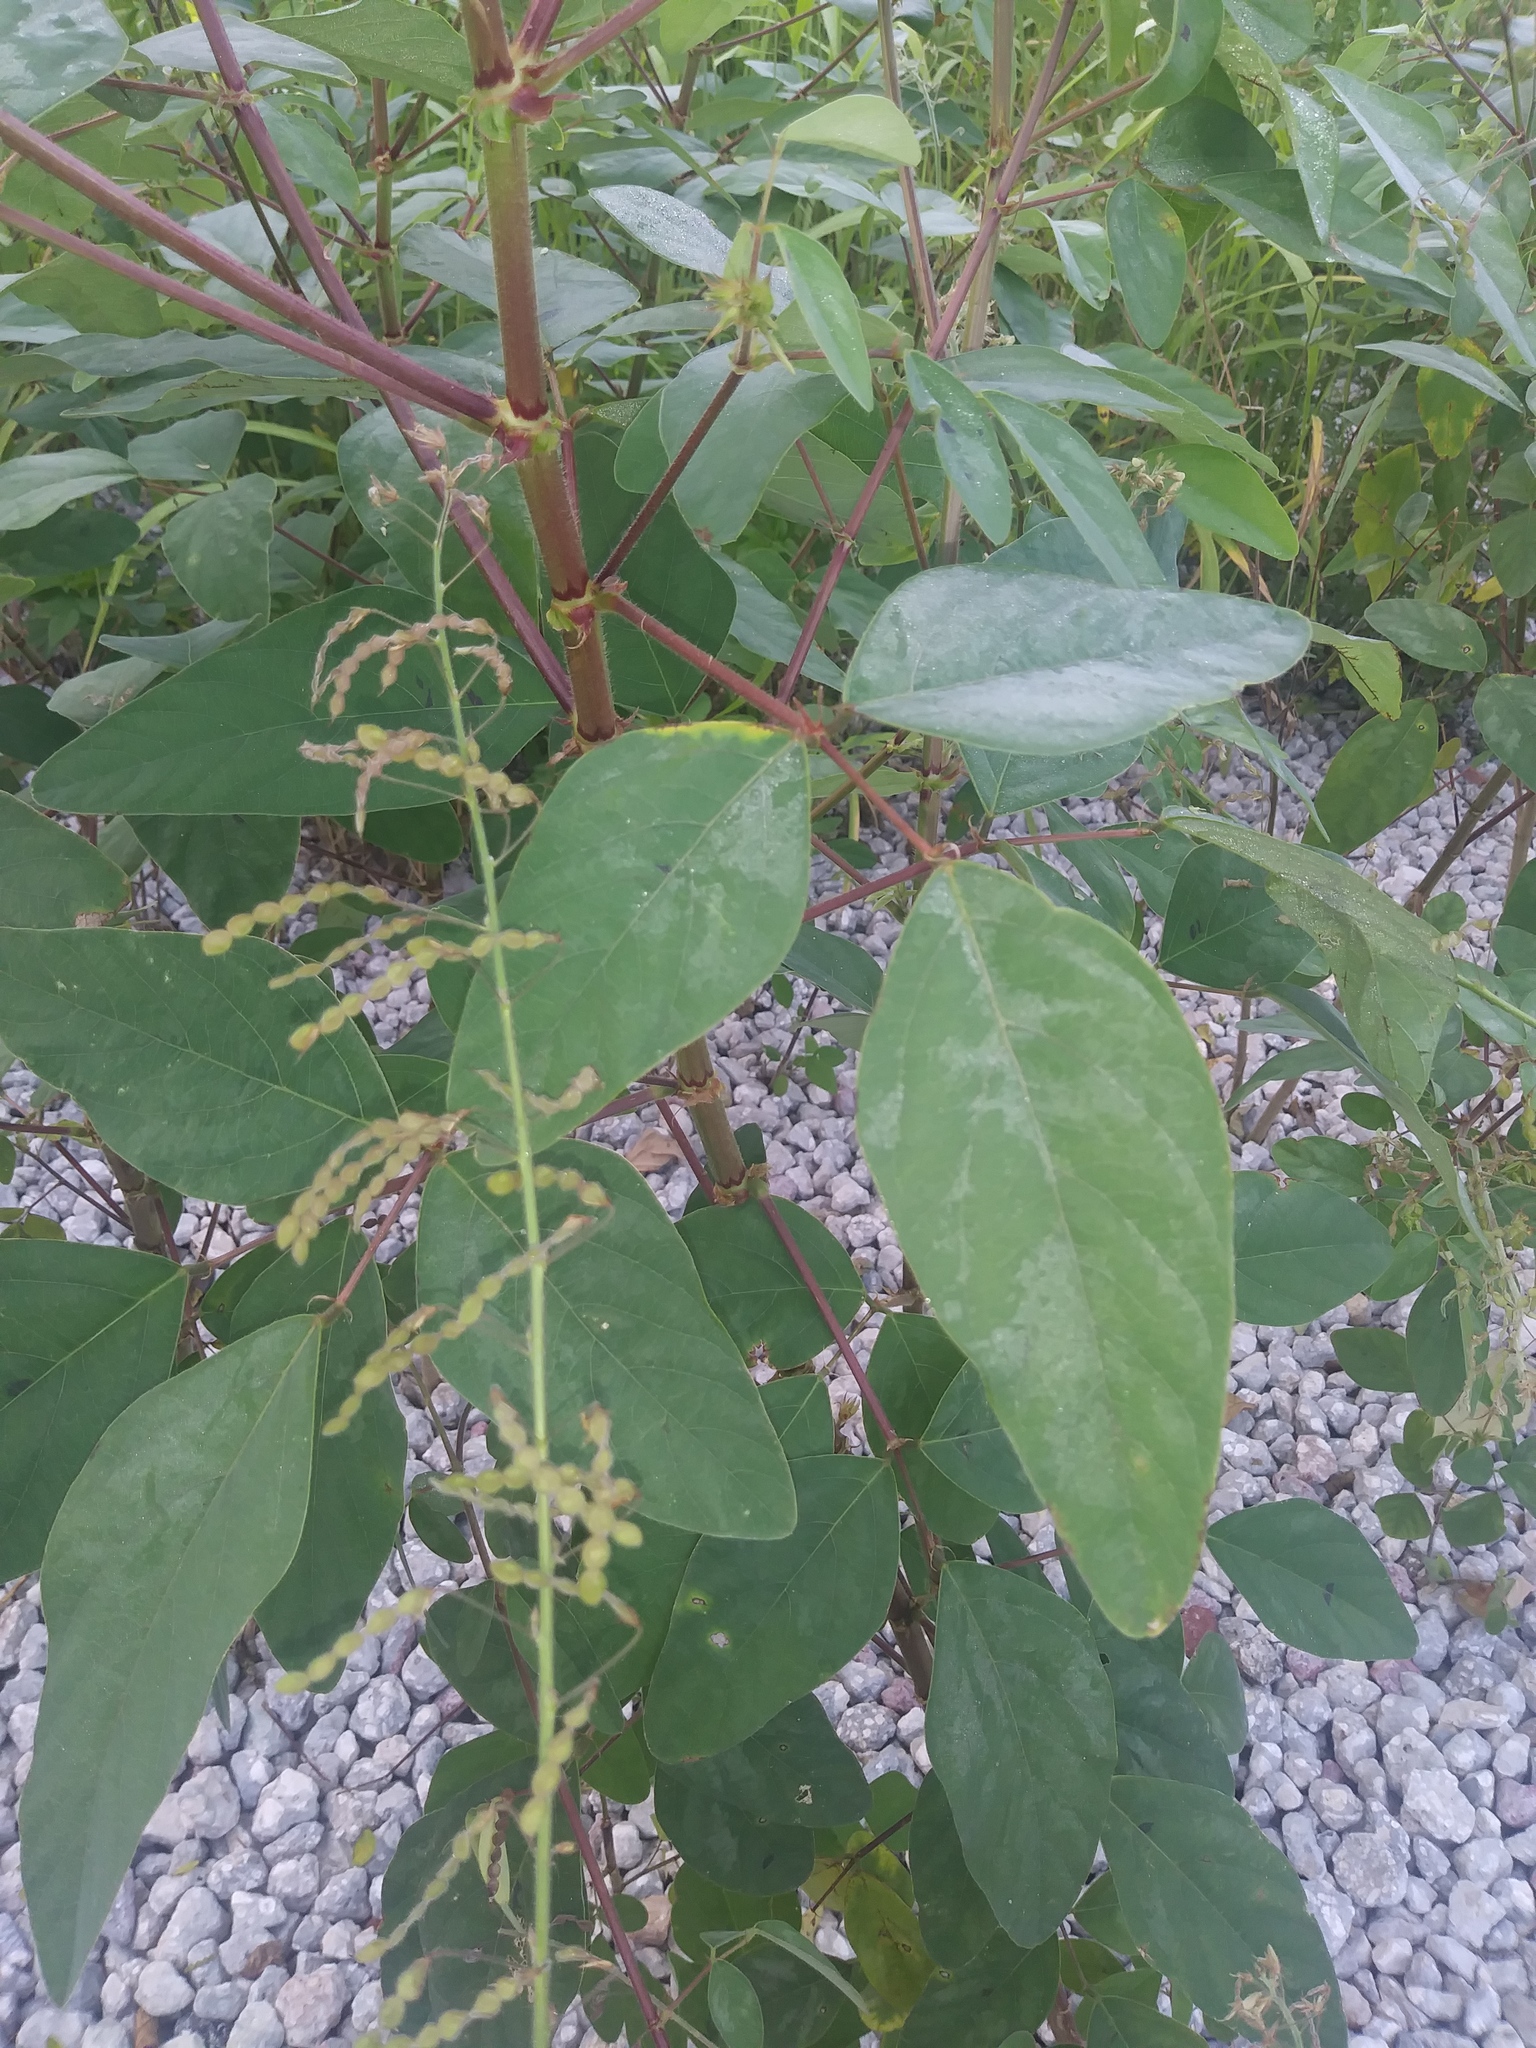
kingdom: Plantae
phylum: Tracheophyta
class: Magnoliopsida
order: Fabales
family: Fabaceae
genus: Desmodium
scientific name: Desmodium tortuosum
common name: Dixie ticktrefoil
